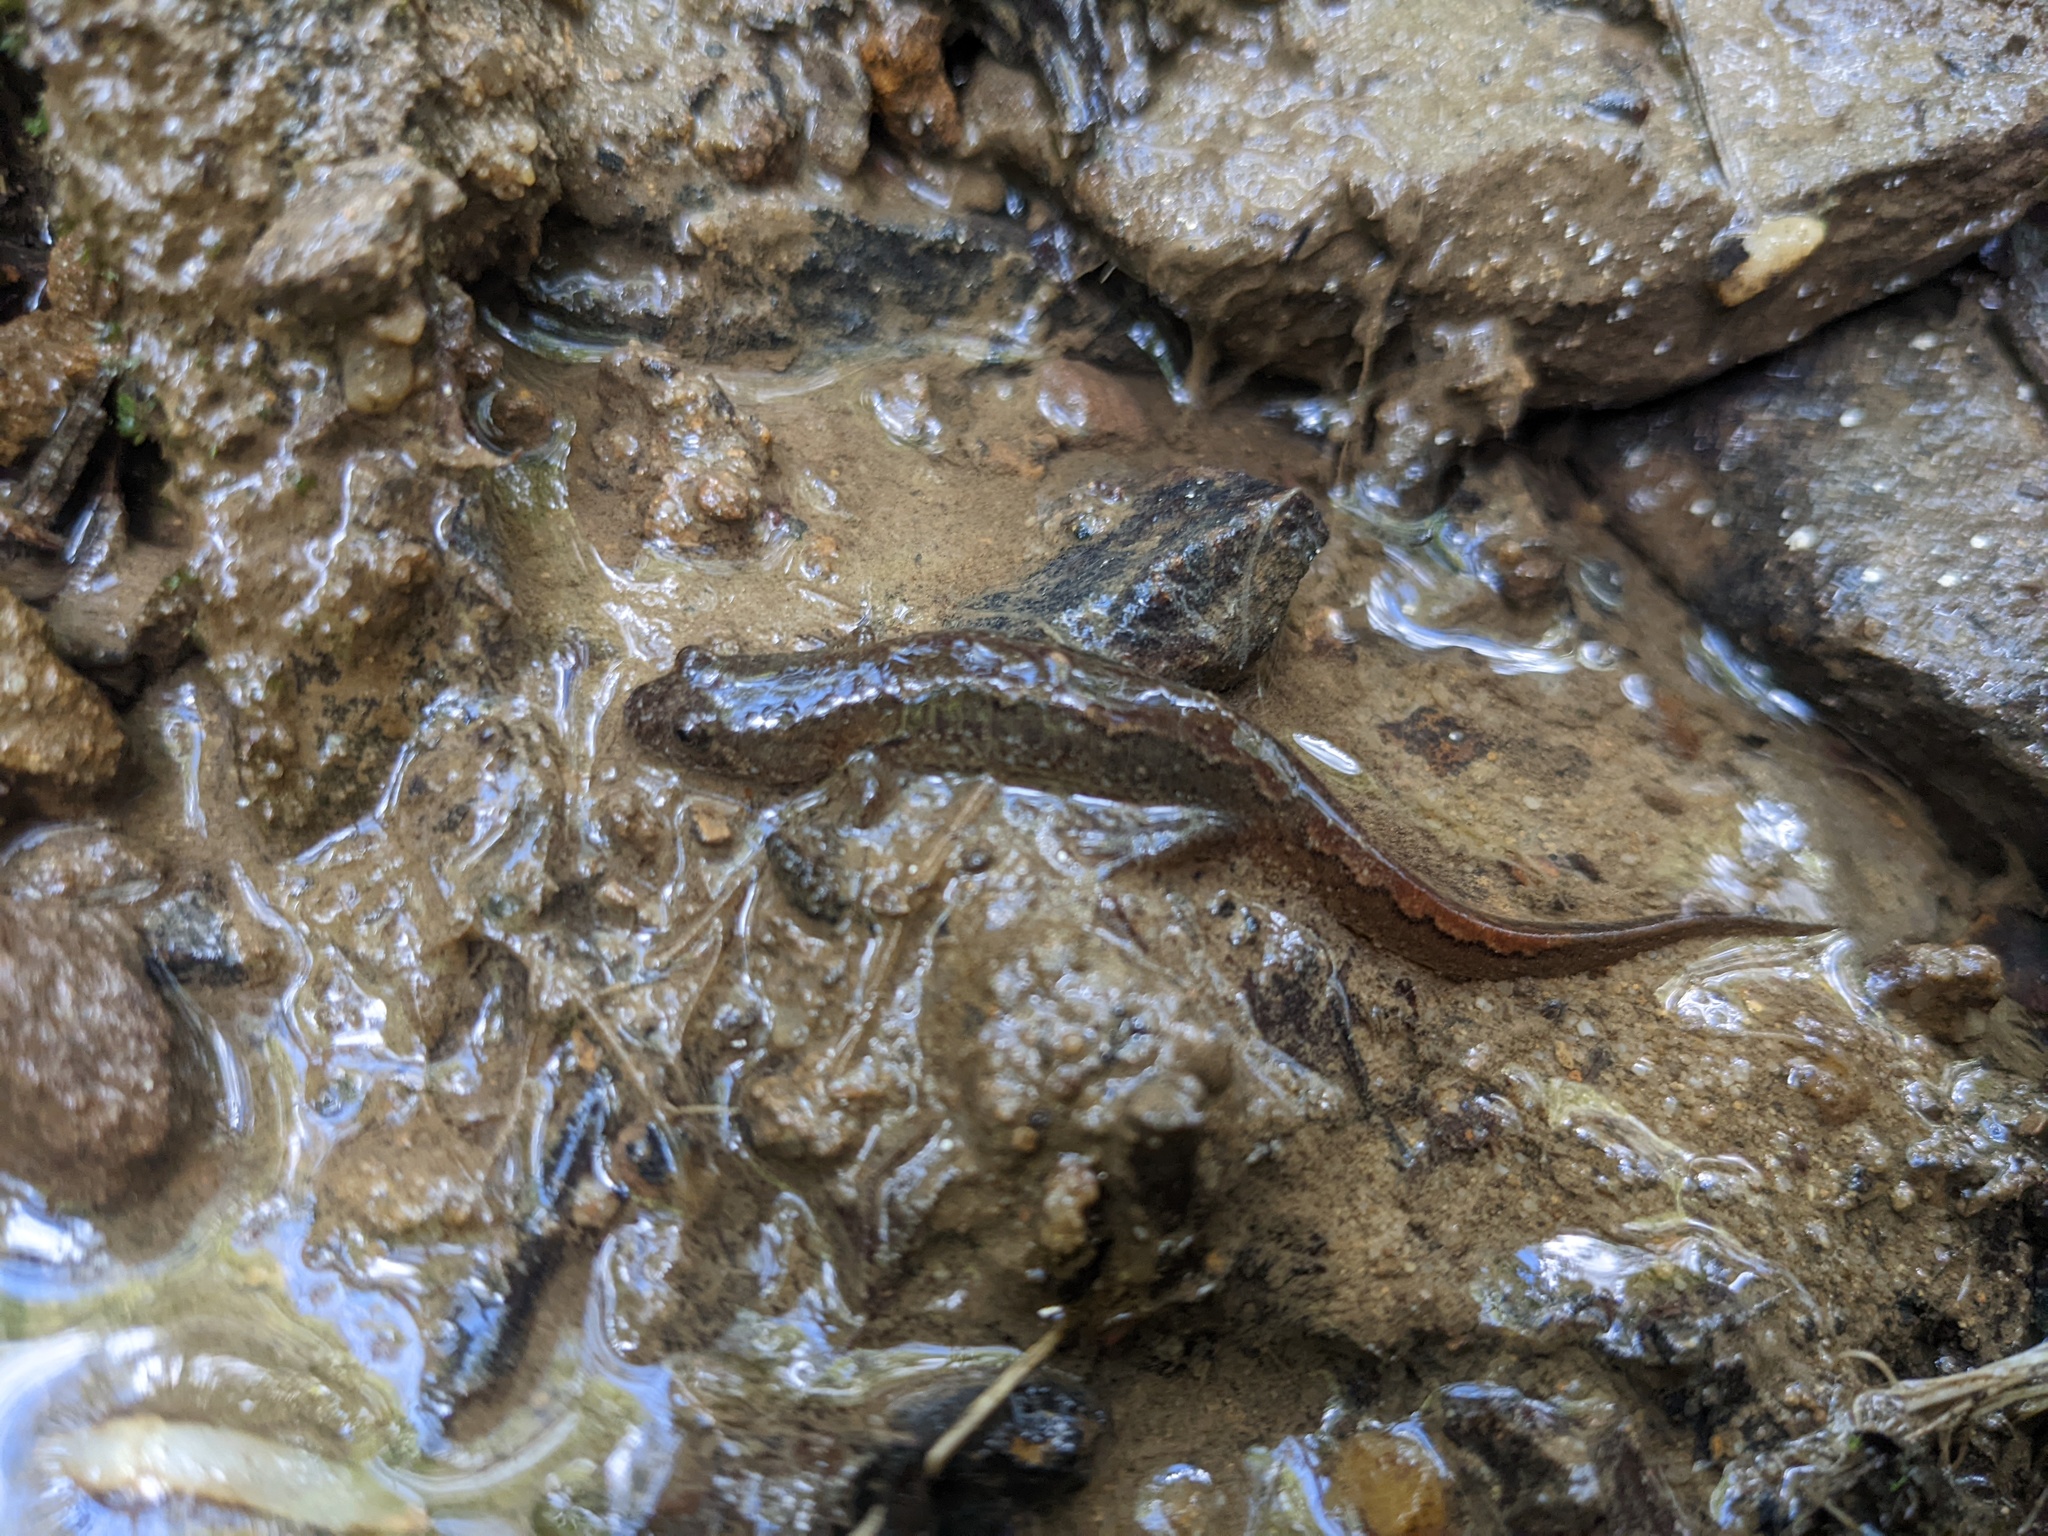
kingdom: Animalia
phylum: Chordata
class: Amphibia
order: Caudata
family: Plethodontidae
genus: Desmognathus
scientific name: Desmognathus fuscus
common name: Northern dusky salamander
